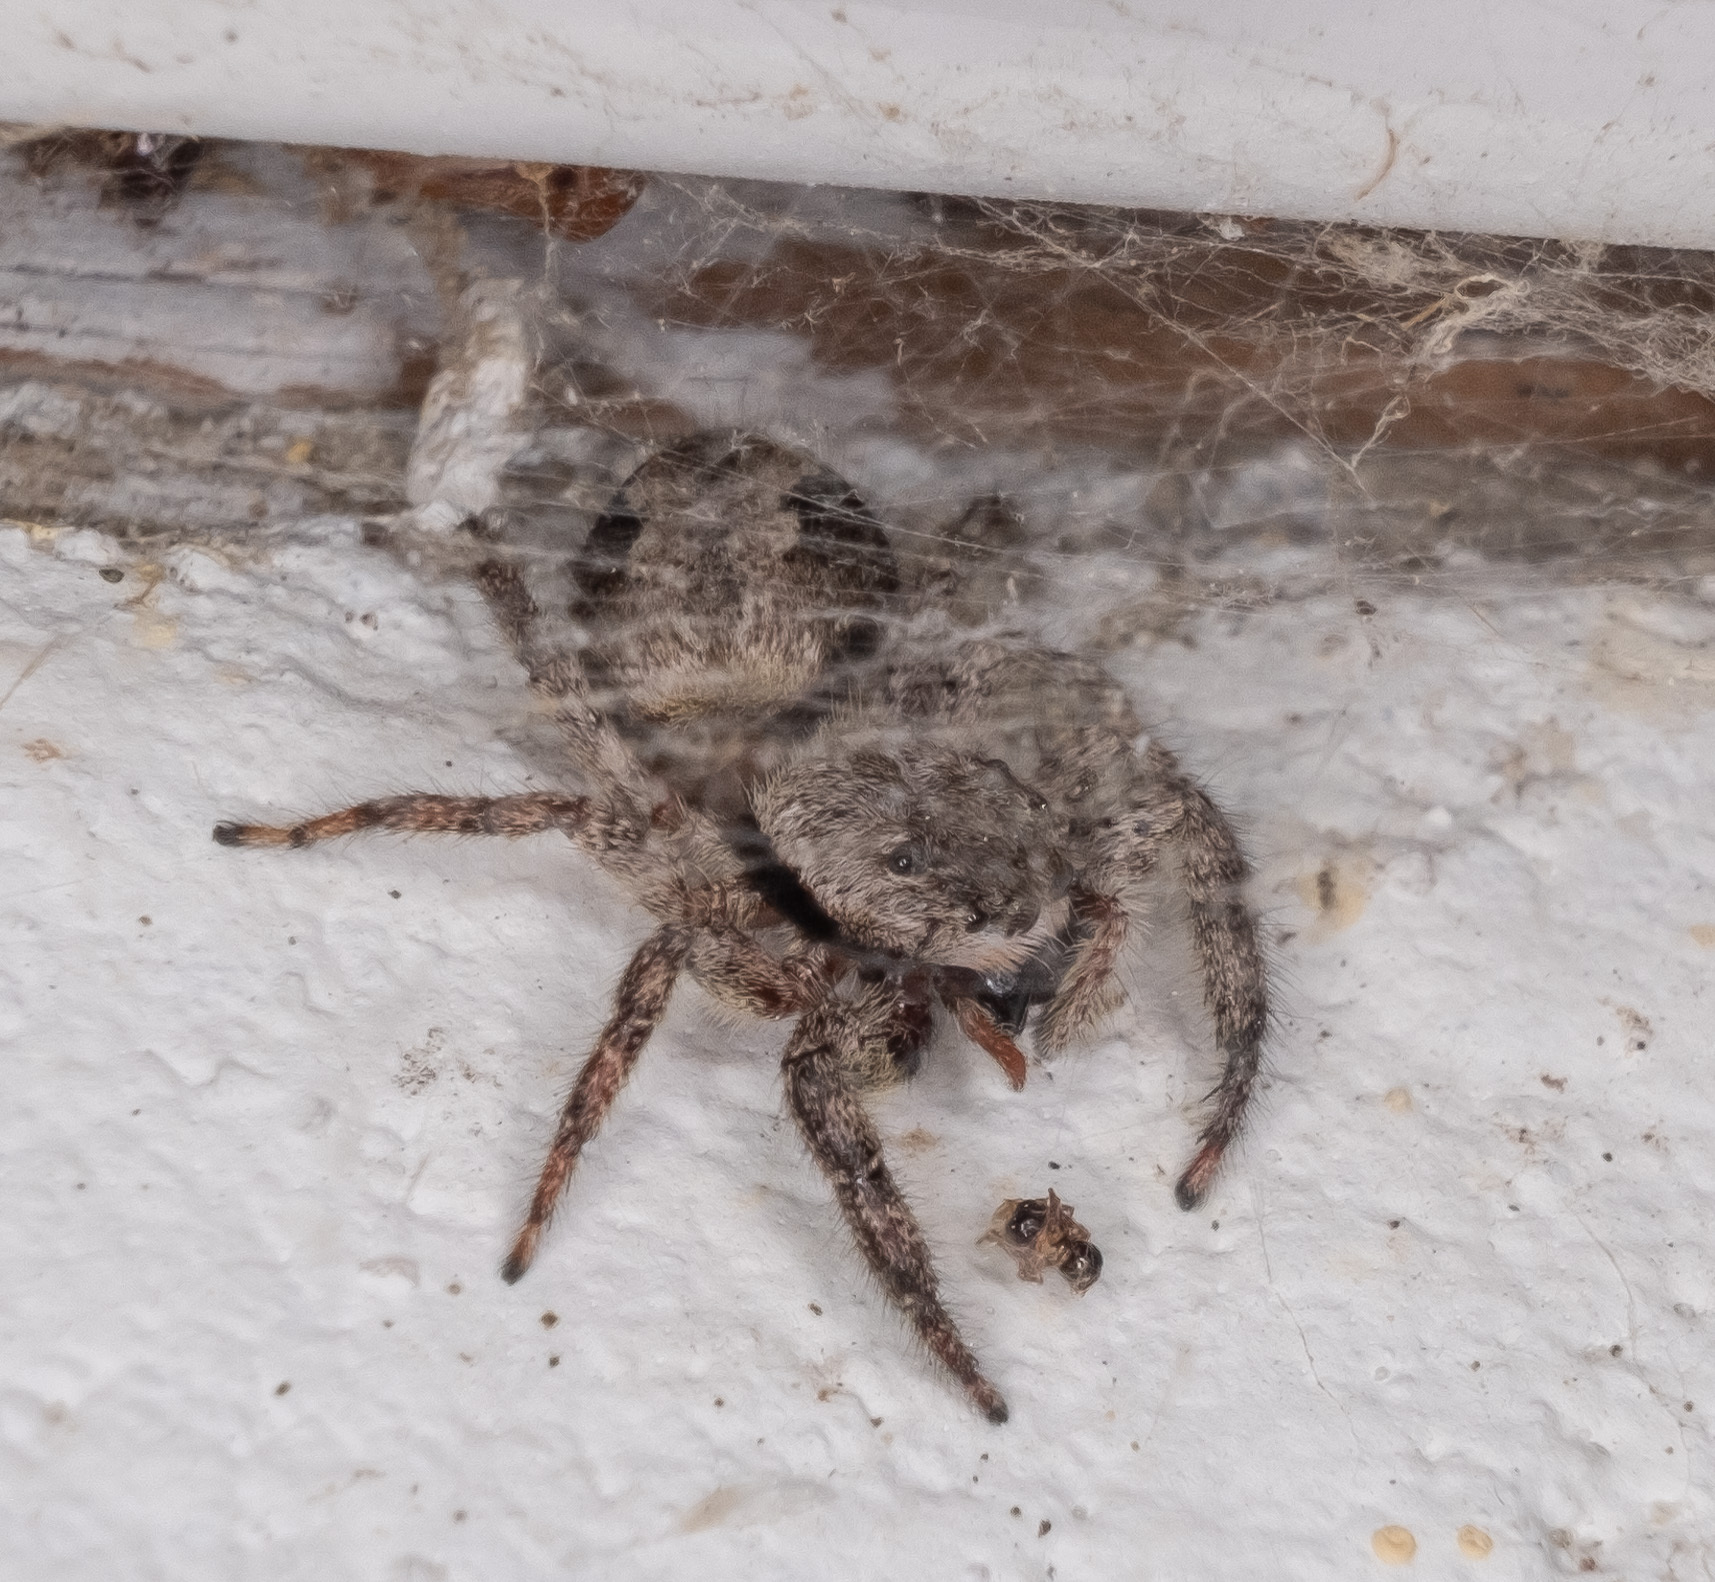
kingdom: Animalia
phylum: Arthropoda
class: Arachnida
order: Araneae
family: Salticidae
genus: Platycryptus
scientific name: Platycryptus undatus
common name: Tan jumping spider
